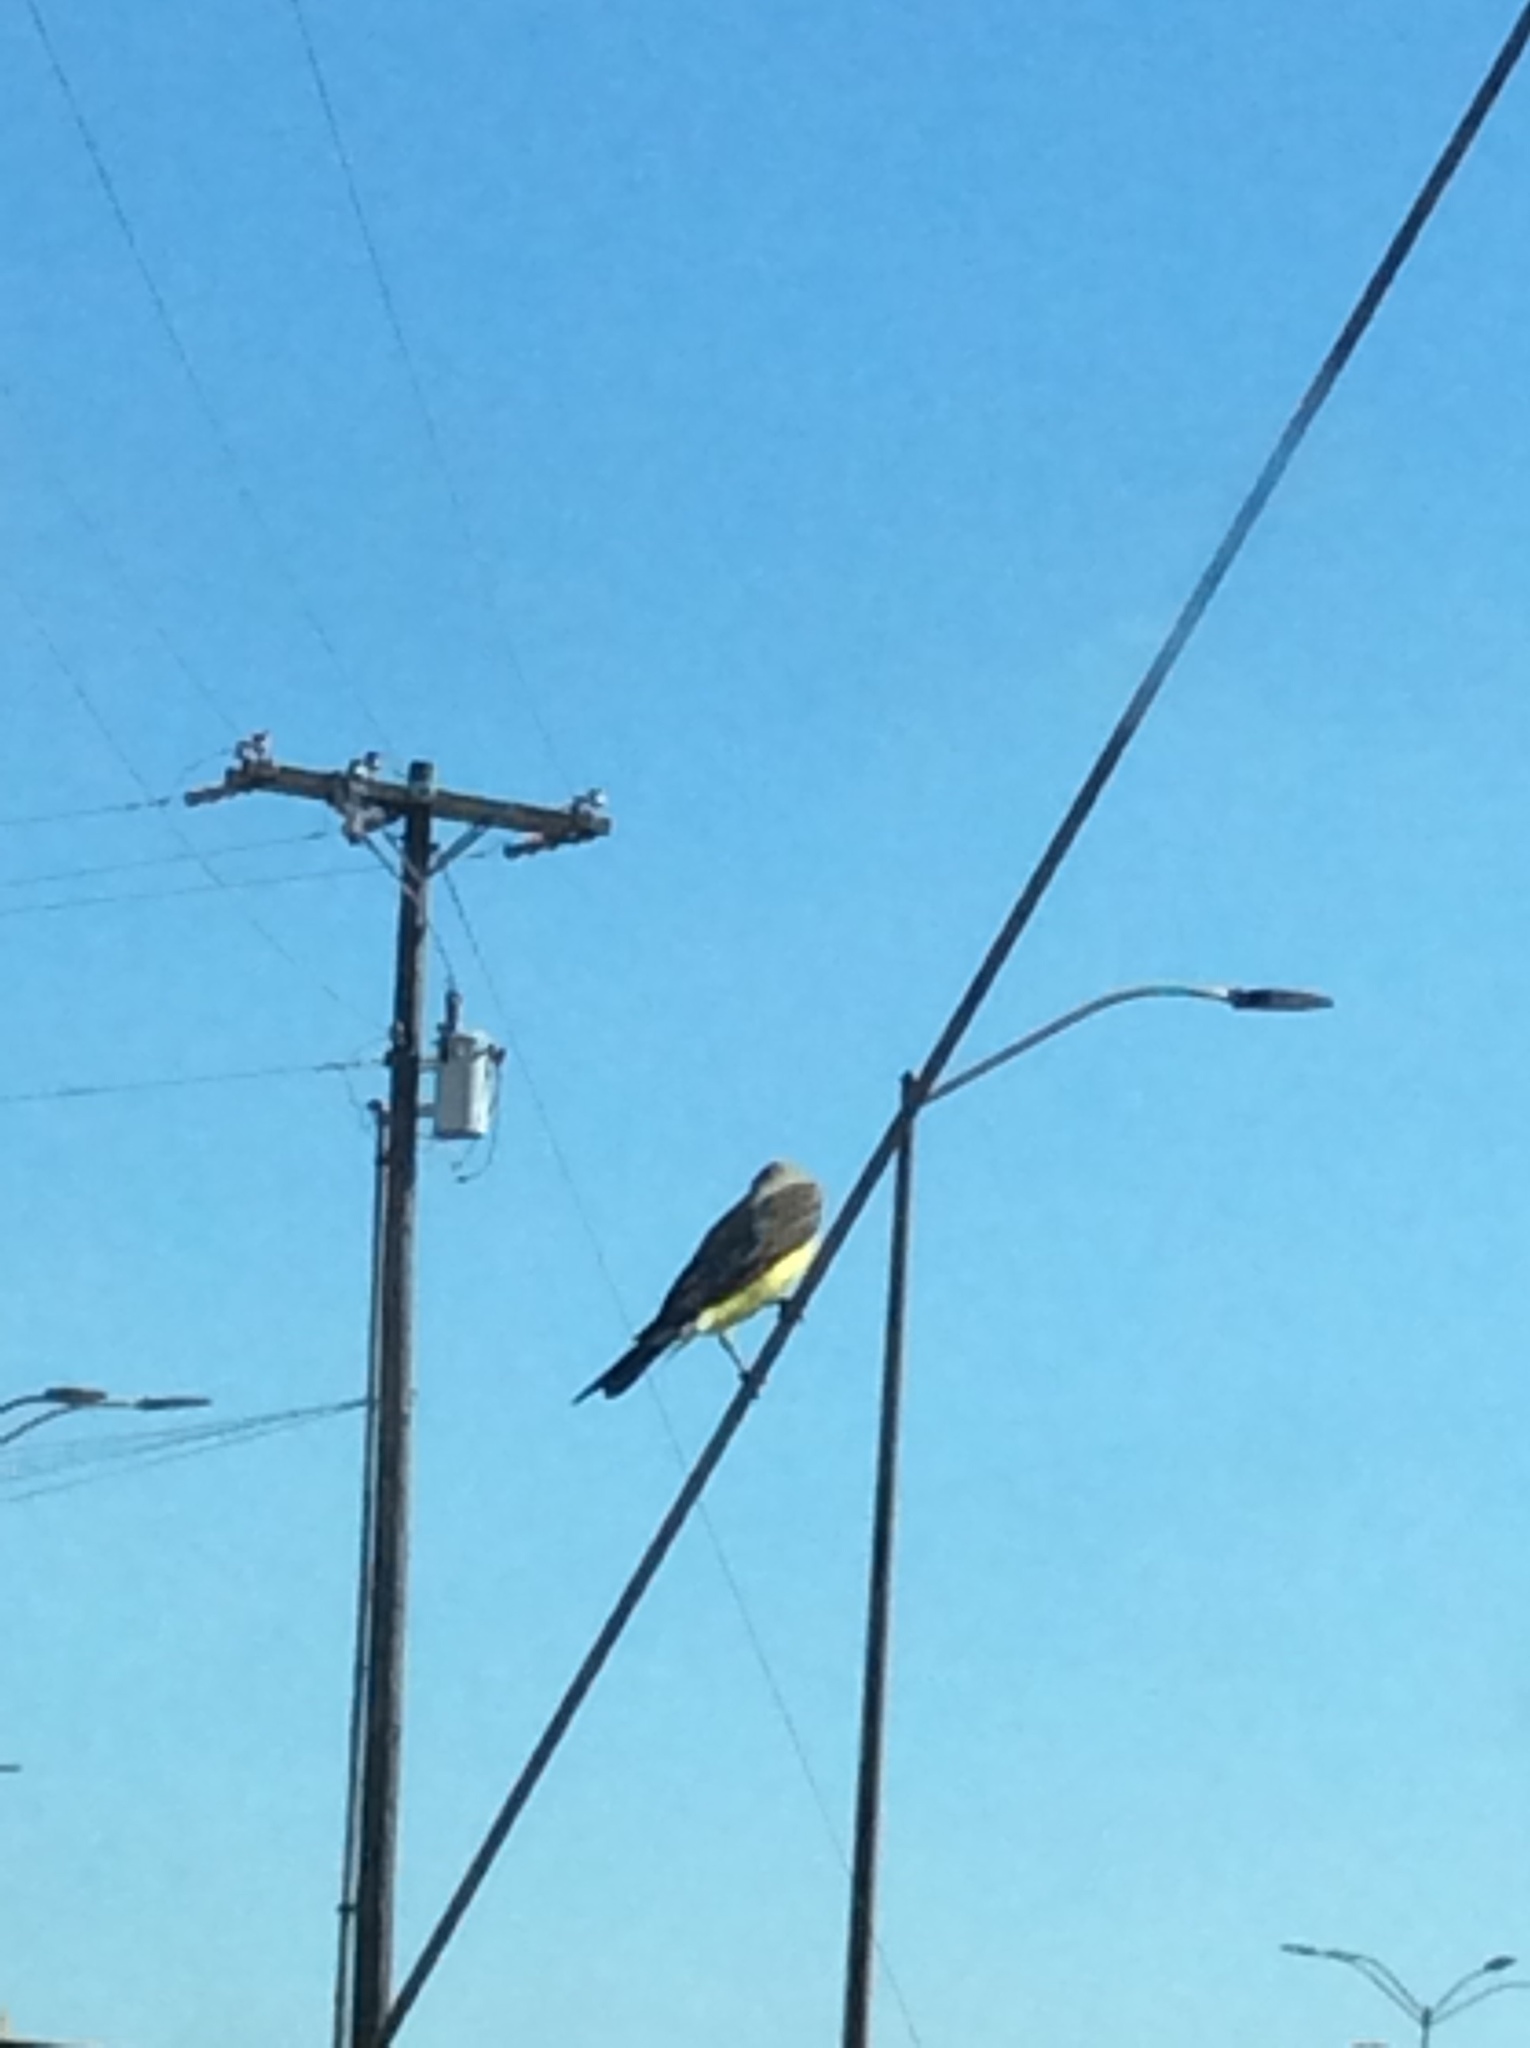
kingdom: Animalia
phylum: Chordata
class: Aves
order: Passeriformes
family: Tyrannidae
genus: Tyrannus
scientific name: Tyrannus verticalis
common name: Western kingbird
